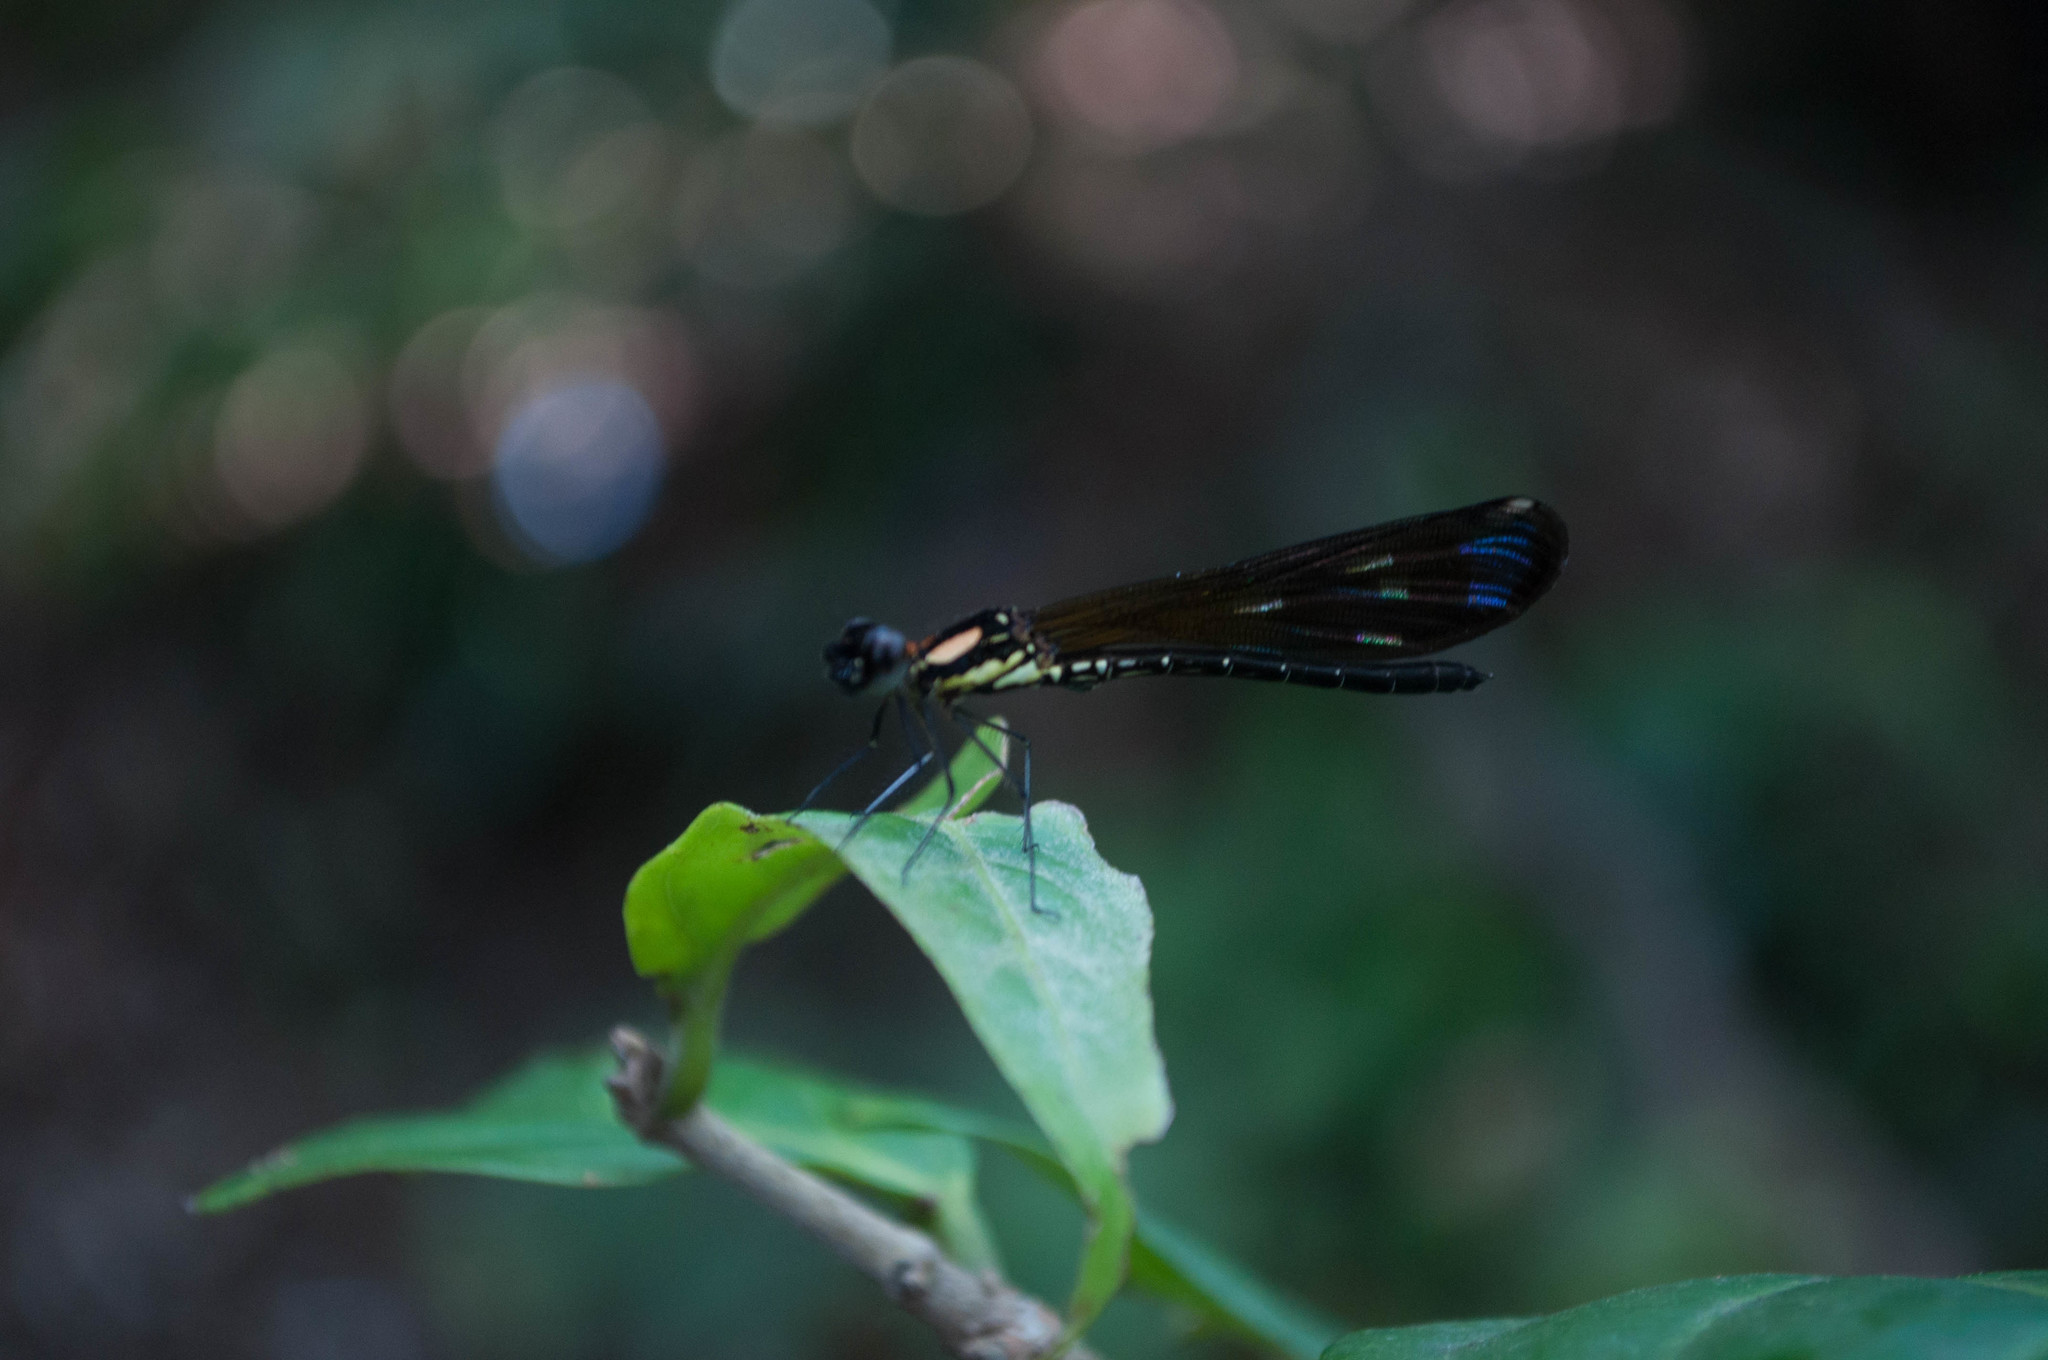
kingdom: Animalia
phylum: Arthropoda
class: Insecta
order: Odonata
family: Chlorocyphidae
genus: Heliocypha
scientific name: Heliocypha fenestrata
